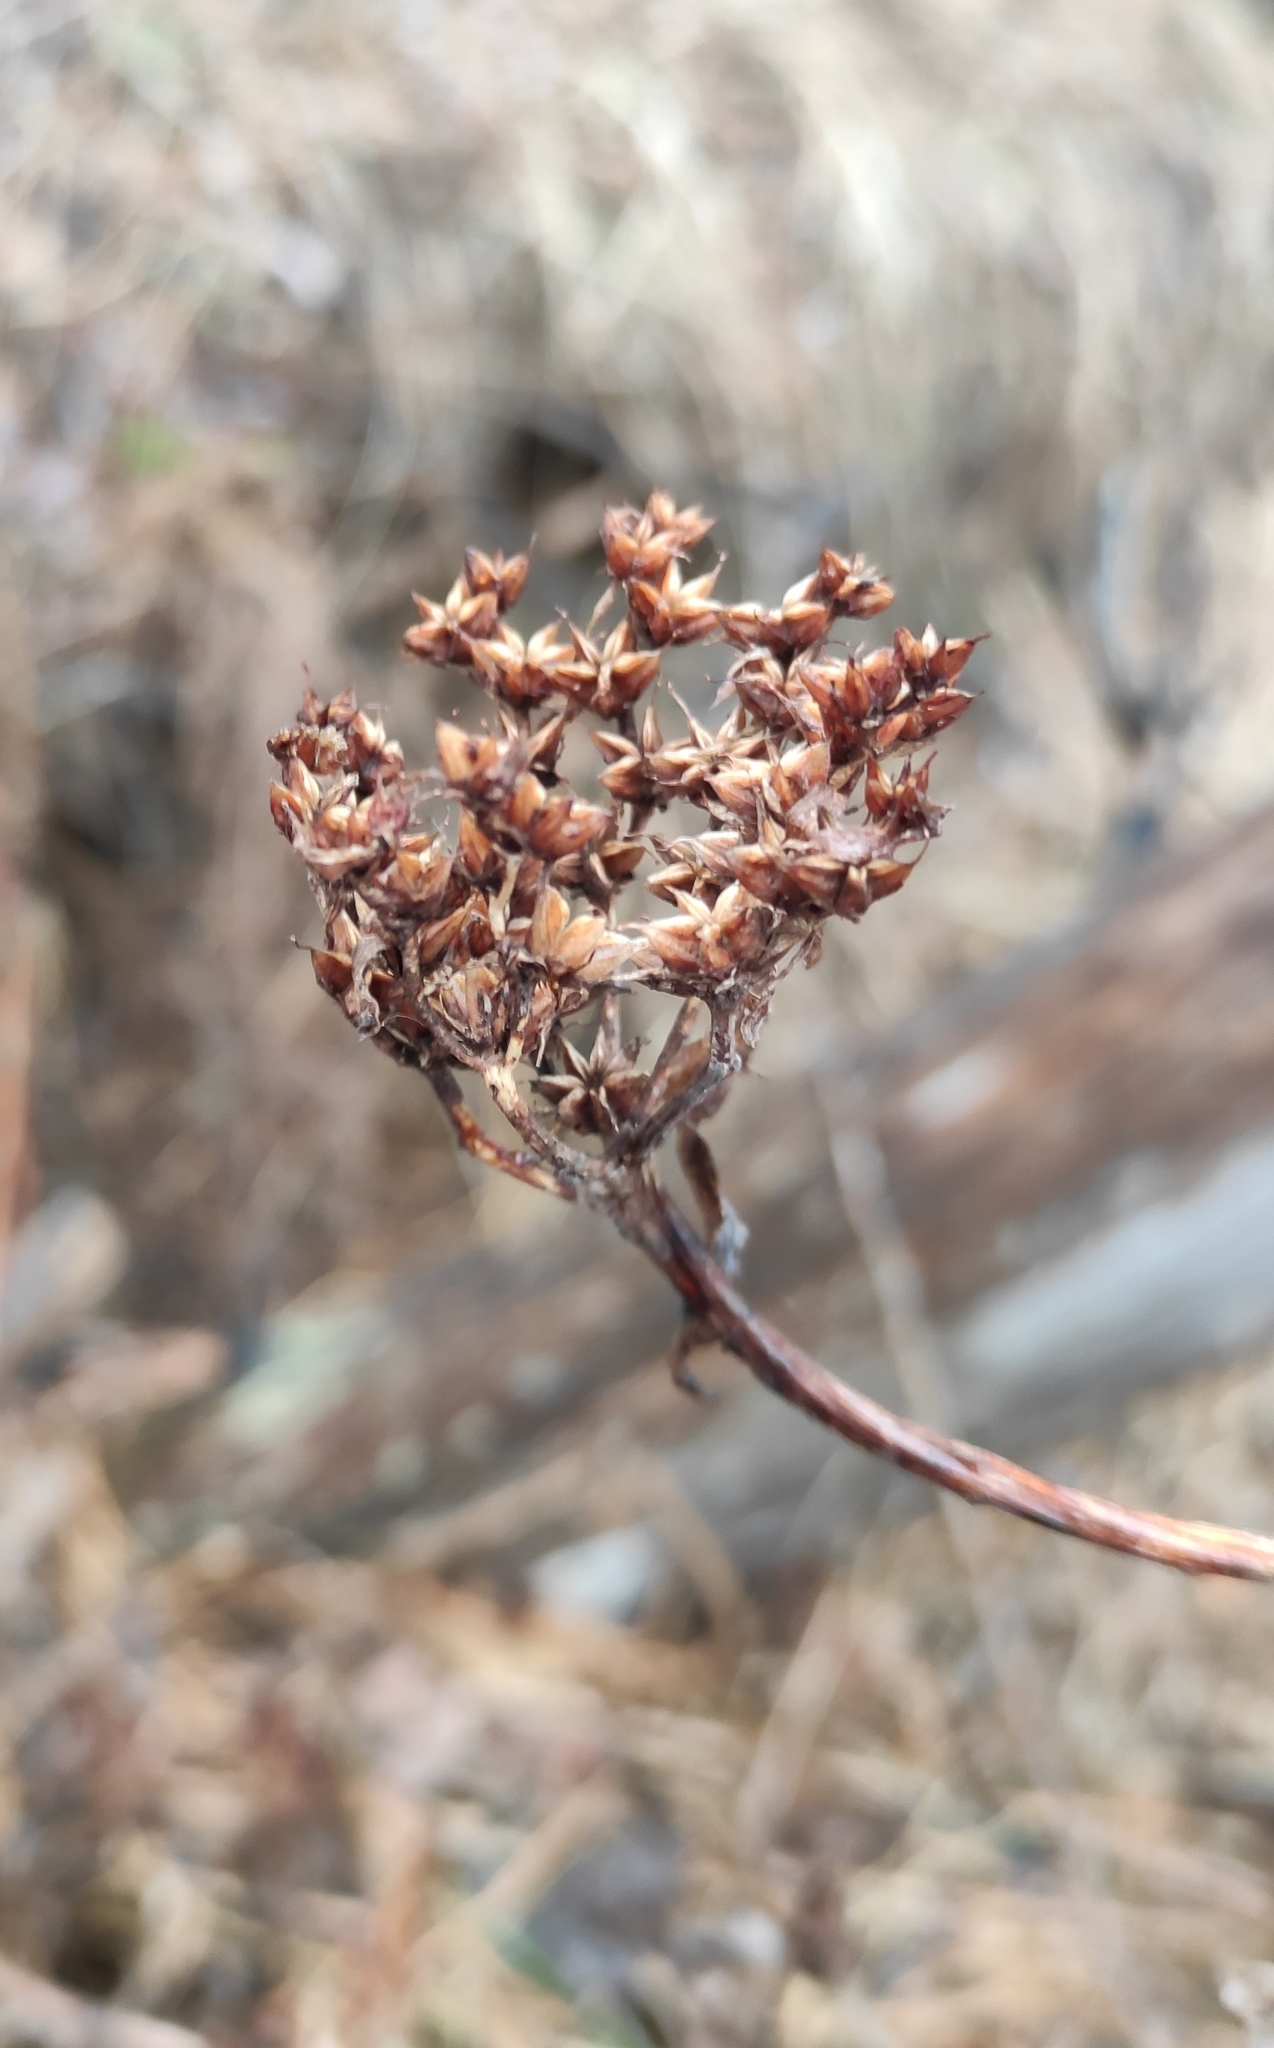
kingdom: Plantae
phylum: Tracheophyta
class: Magnoliopsida
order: Saxifragales
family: Crassulaceae
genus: Phedimus
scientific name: Phedimus aizoon
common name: Orpin aizoon
